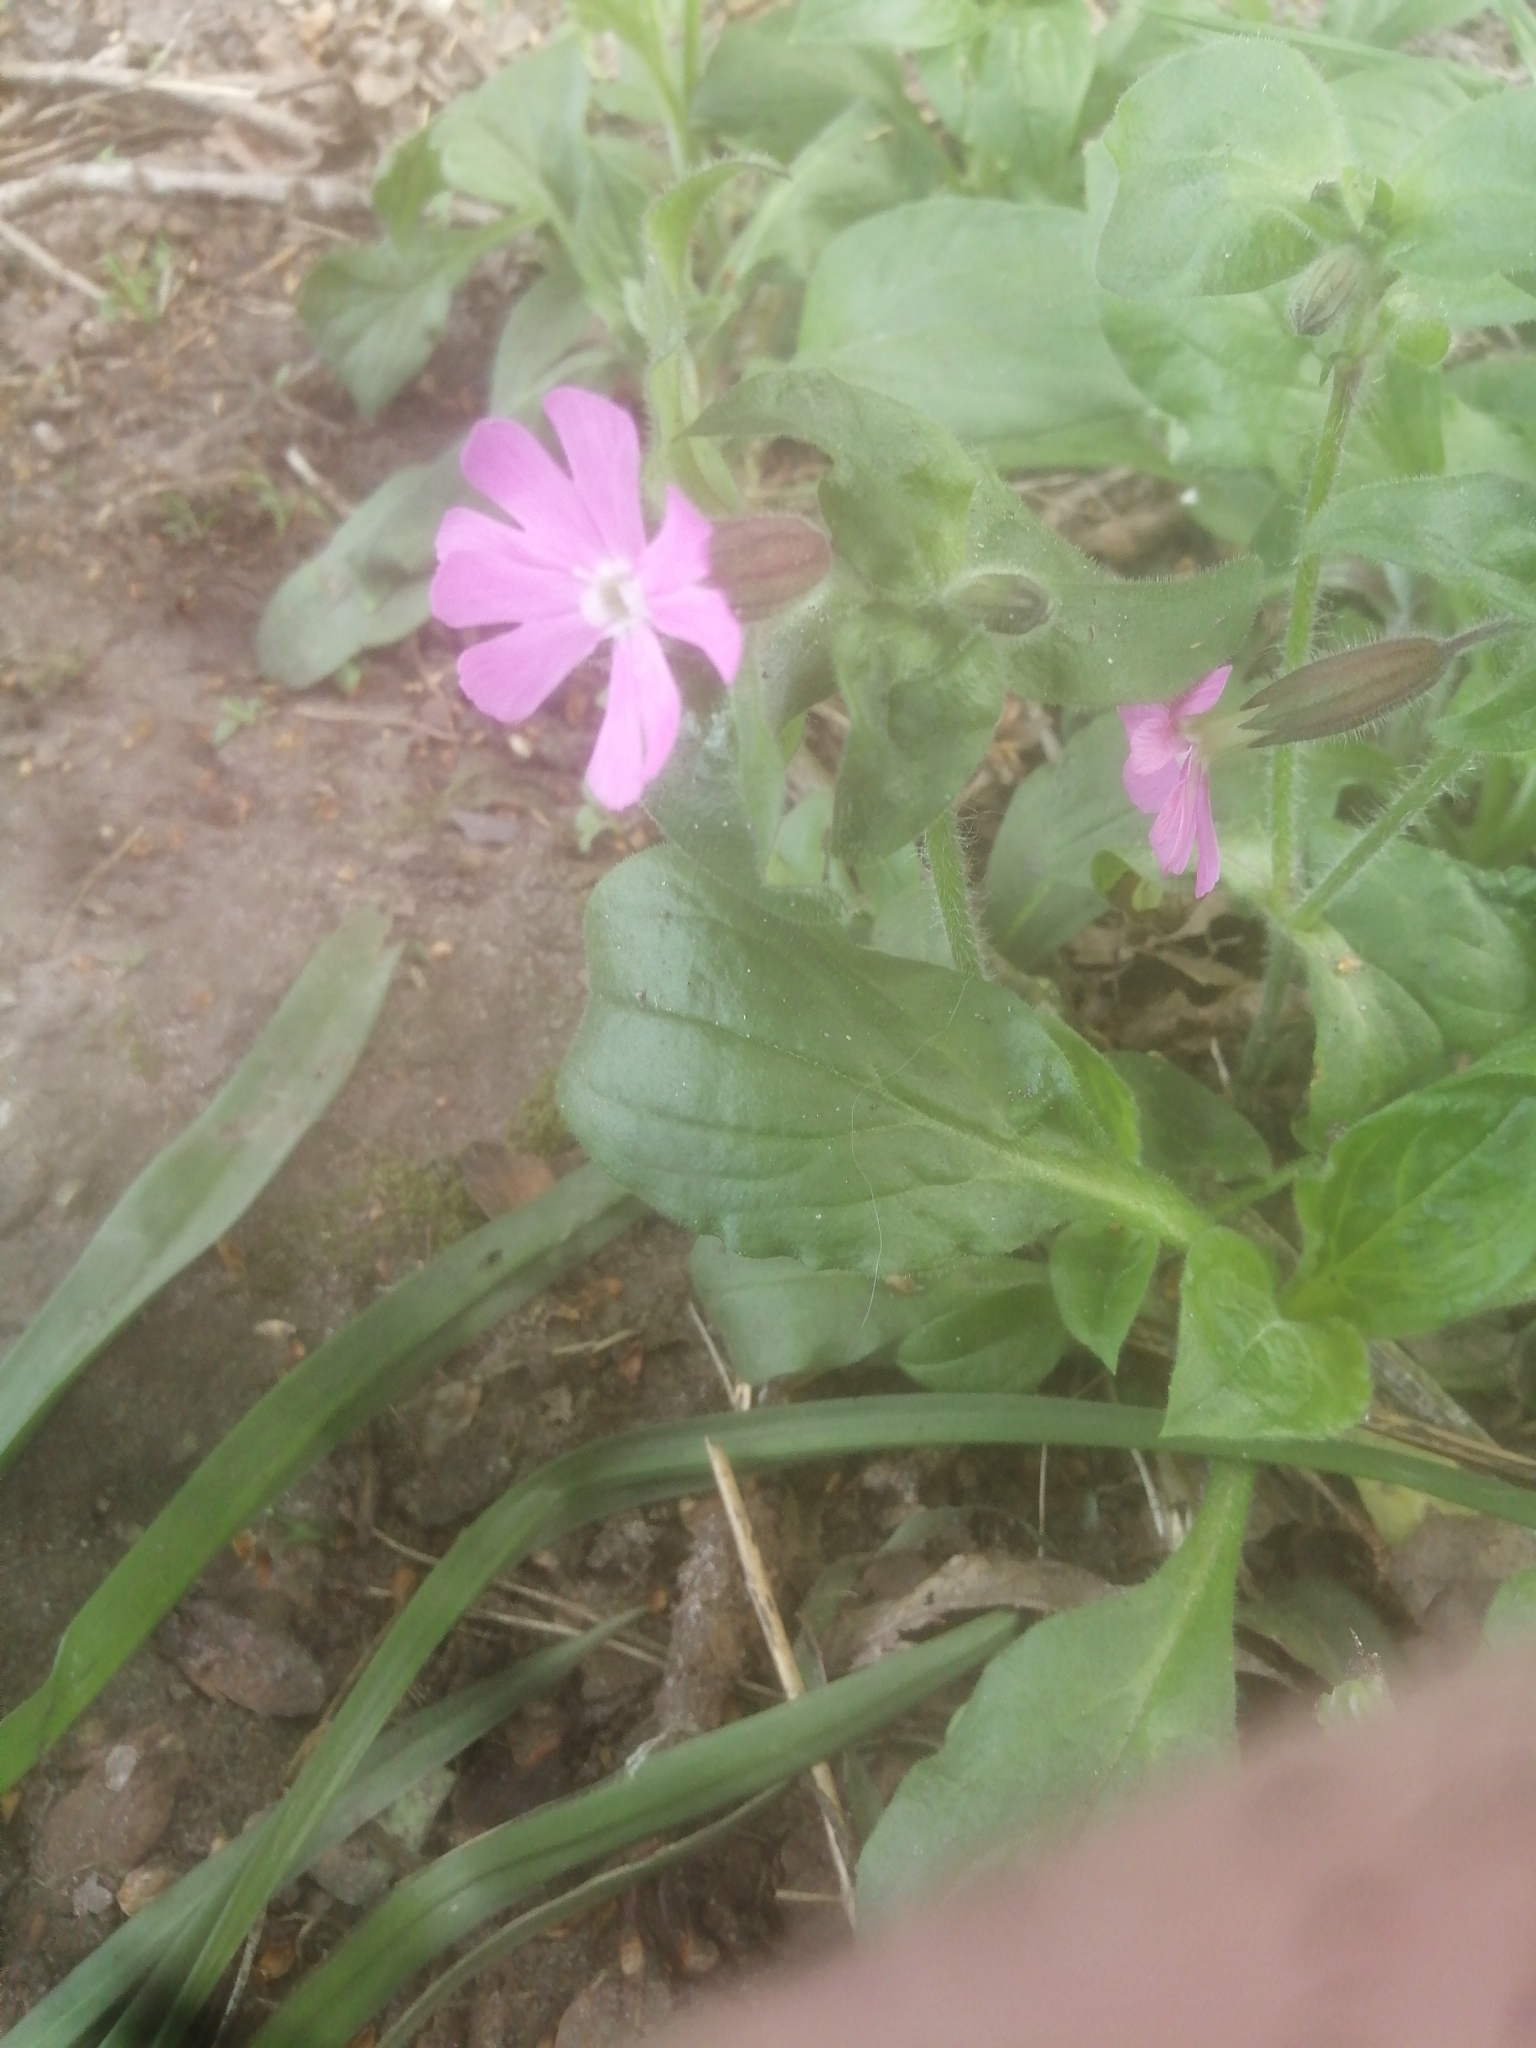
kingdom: Plantae
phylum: Tracheophyta
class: Magnoliopsida
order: Caryophyllales
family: Caryophyllaceae
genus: Silene
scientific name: Silene dioica
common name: Red campion
